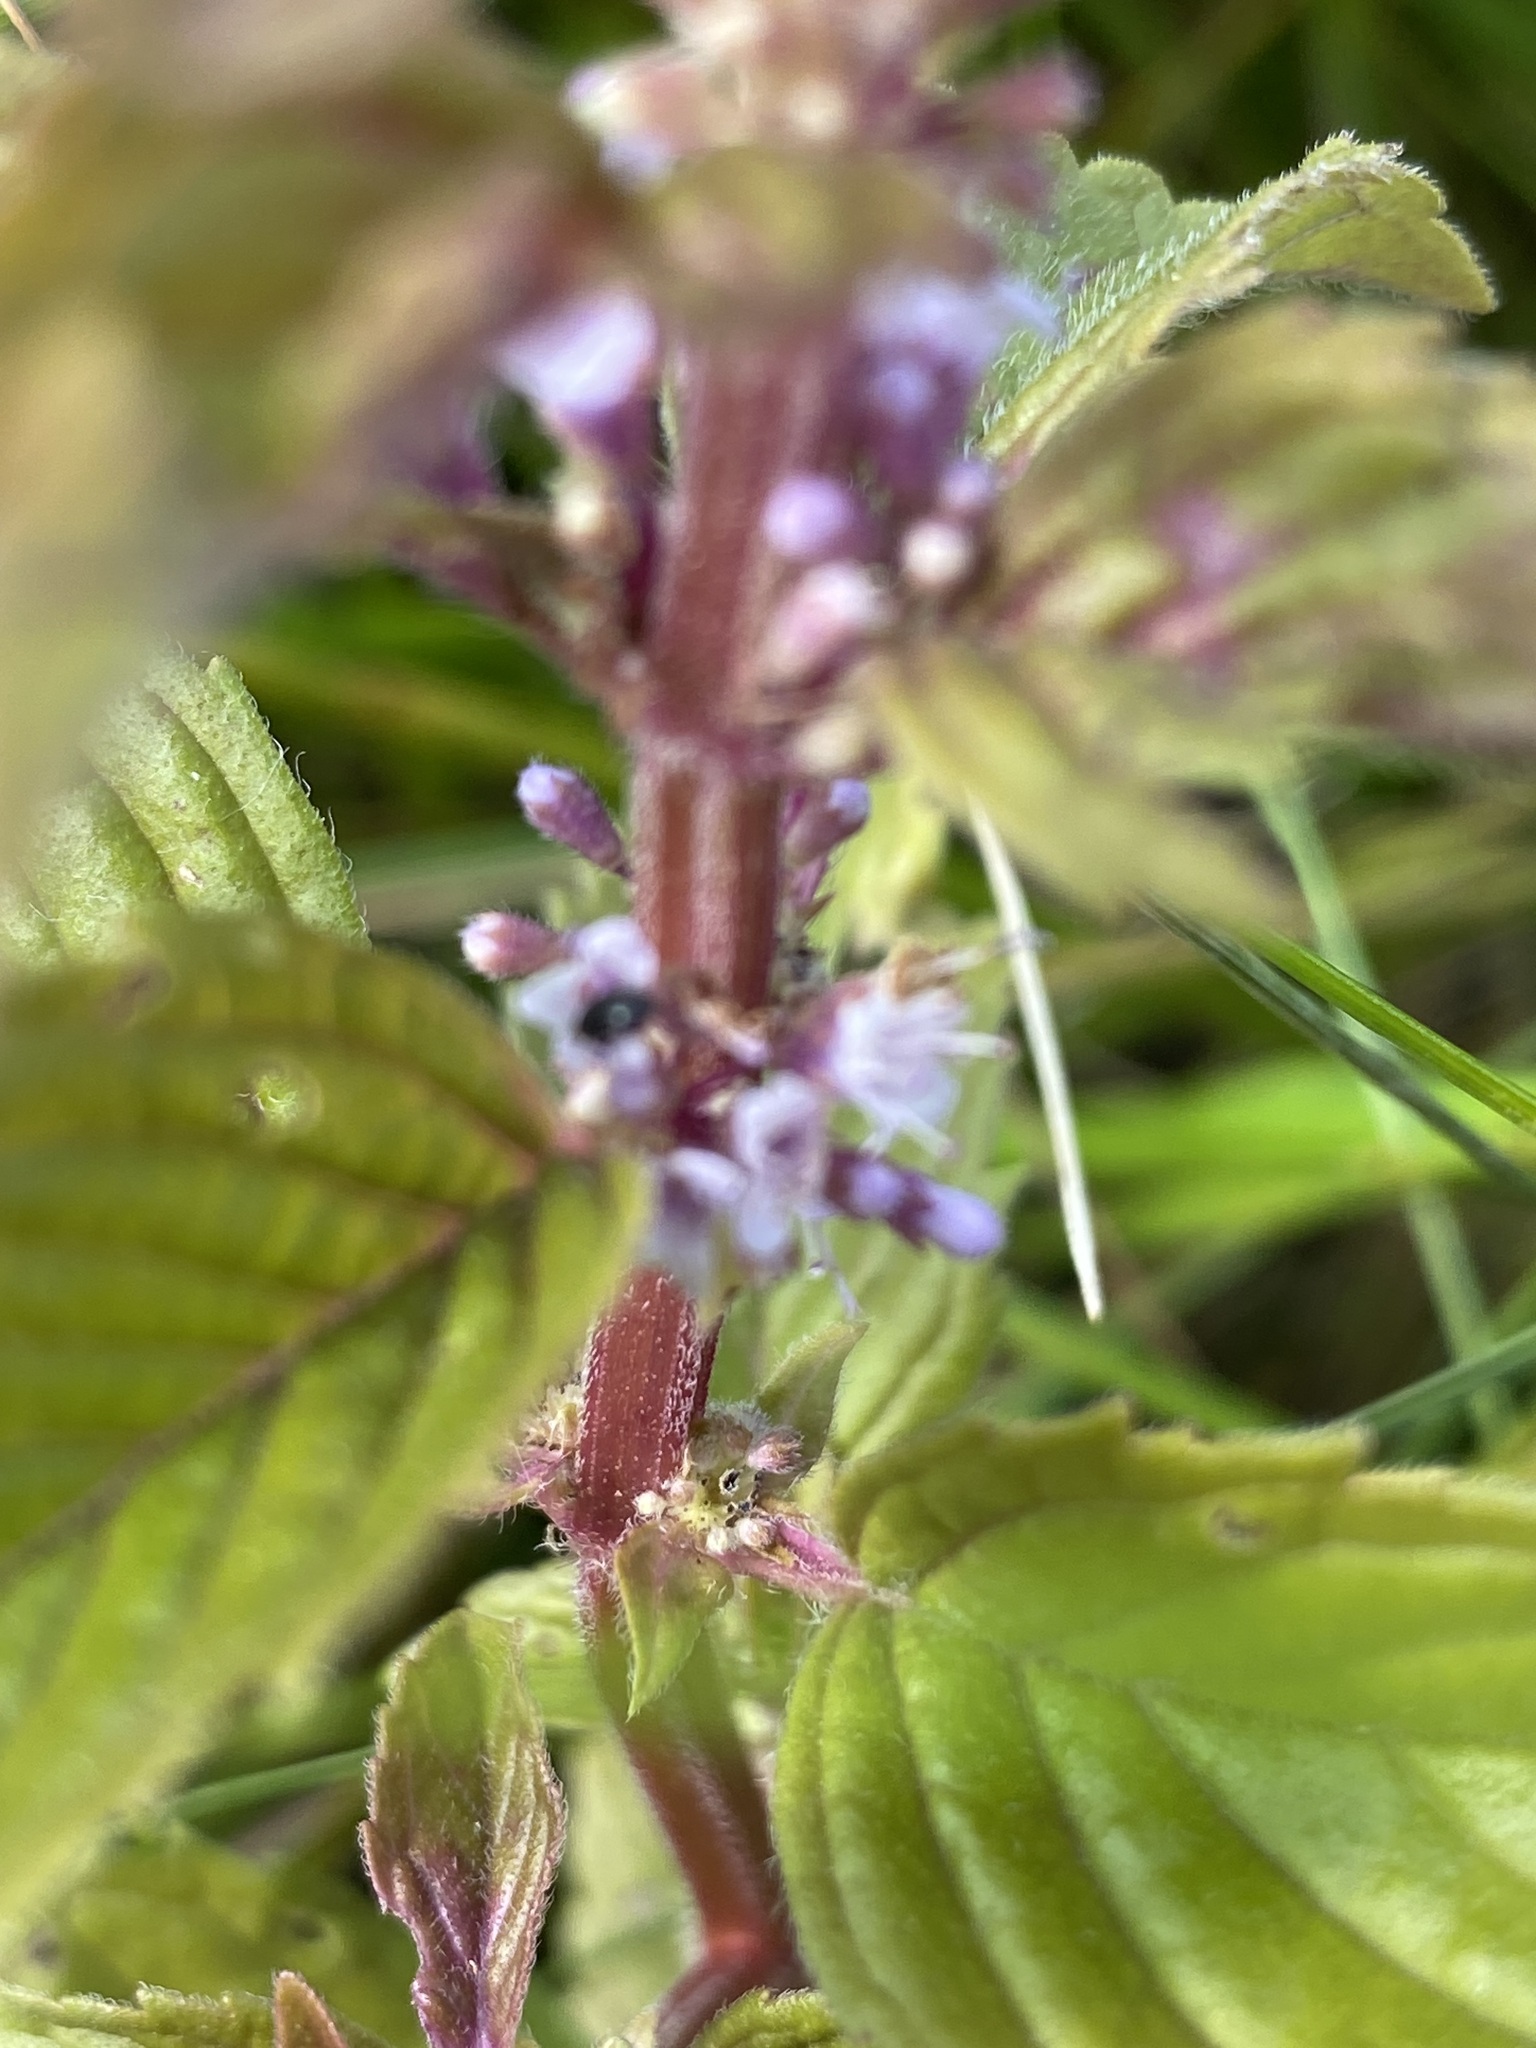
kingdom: Plantae
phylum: Tracheophyta
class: Magnoliopsida
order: Lamiales
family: Lamiaceae
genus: Mentha
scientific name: Mentha arvensis
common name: Corn mint
